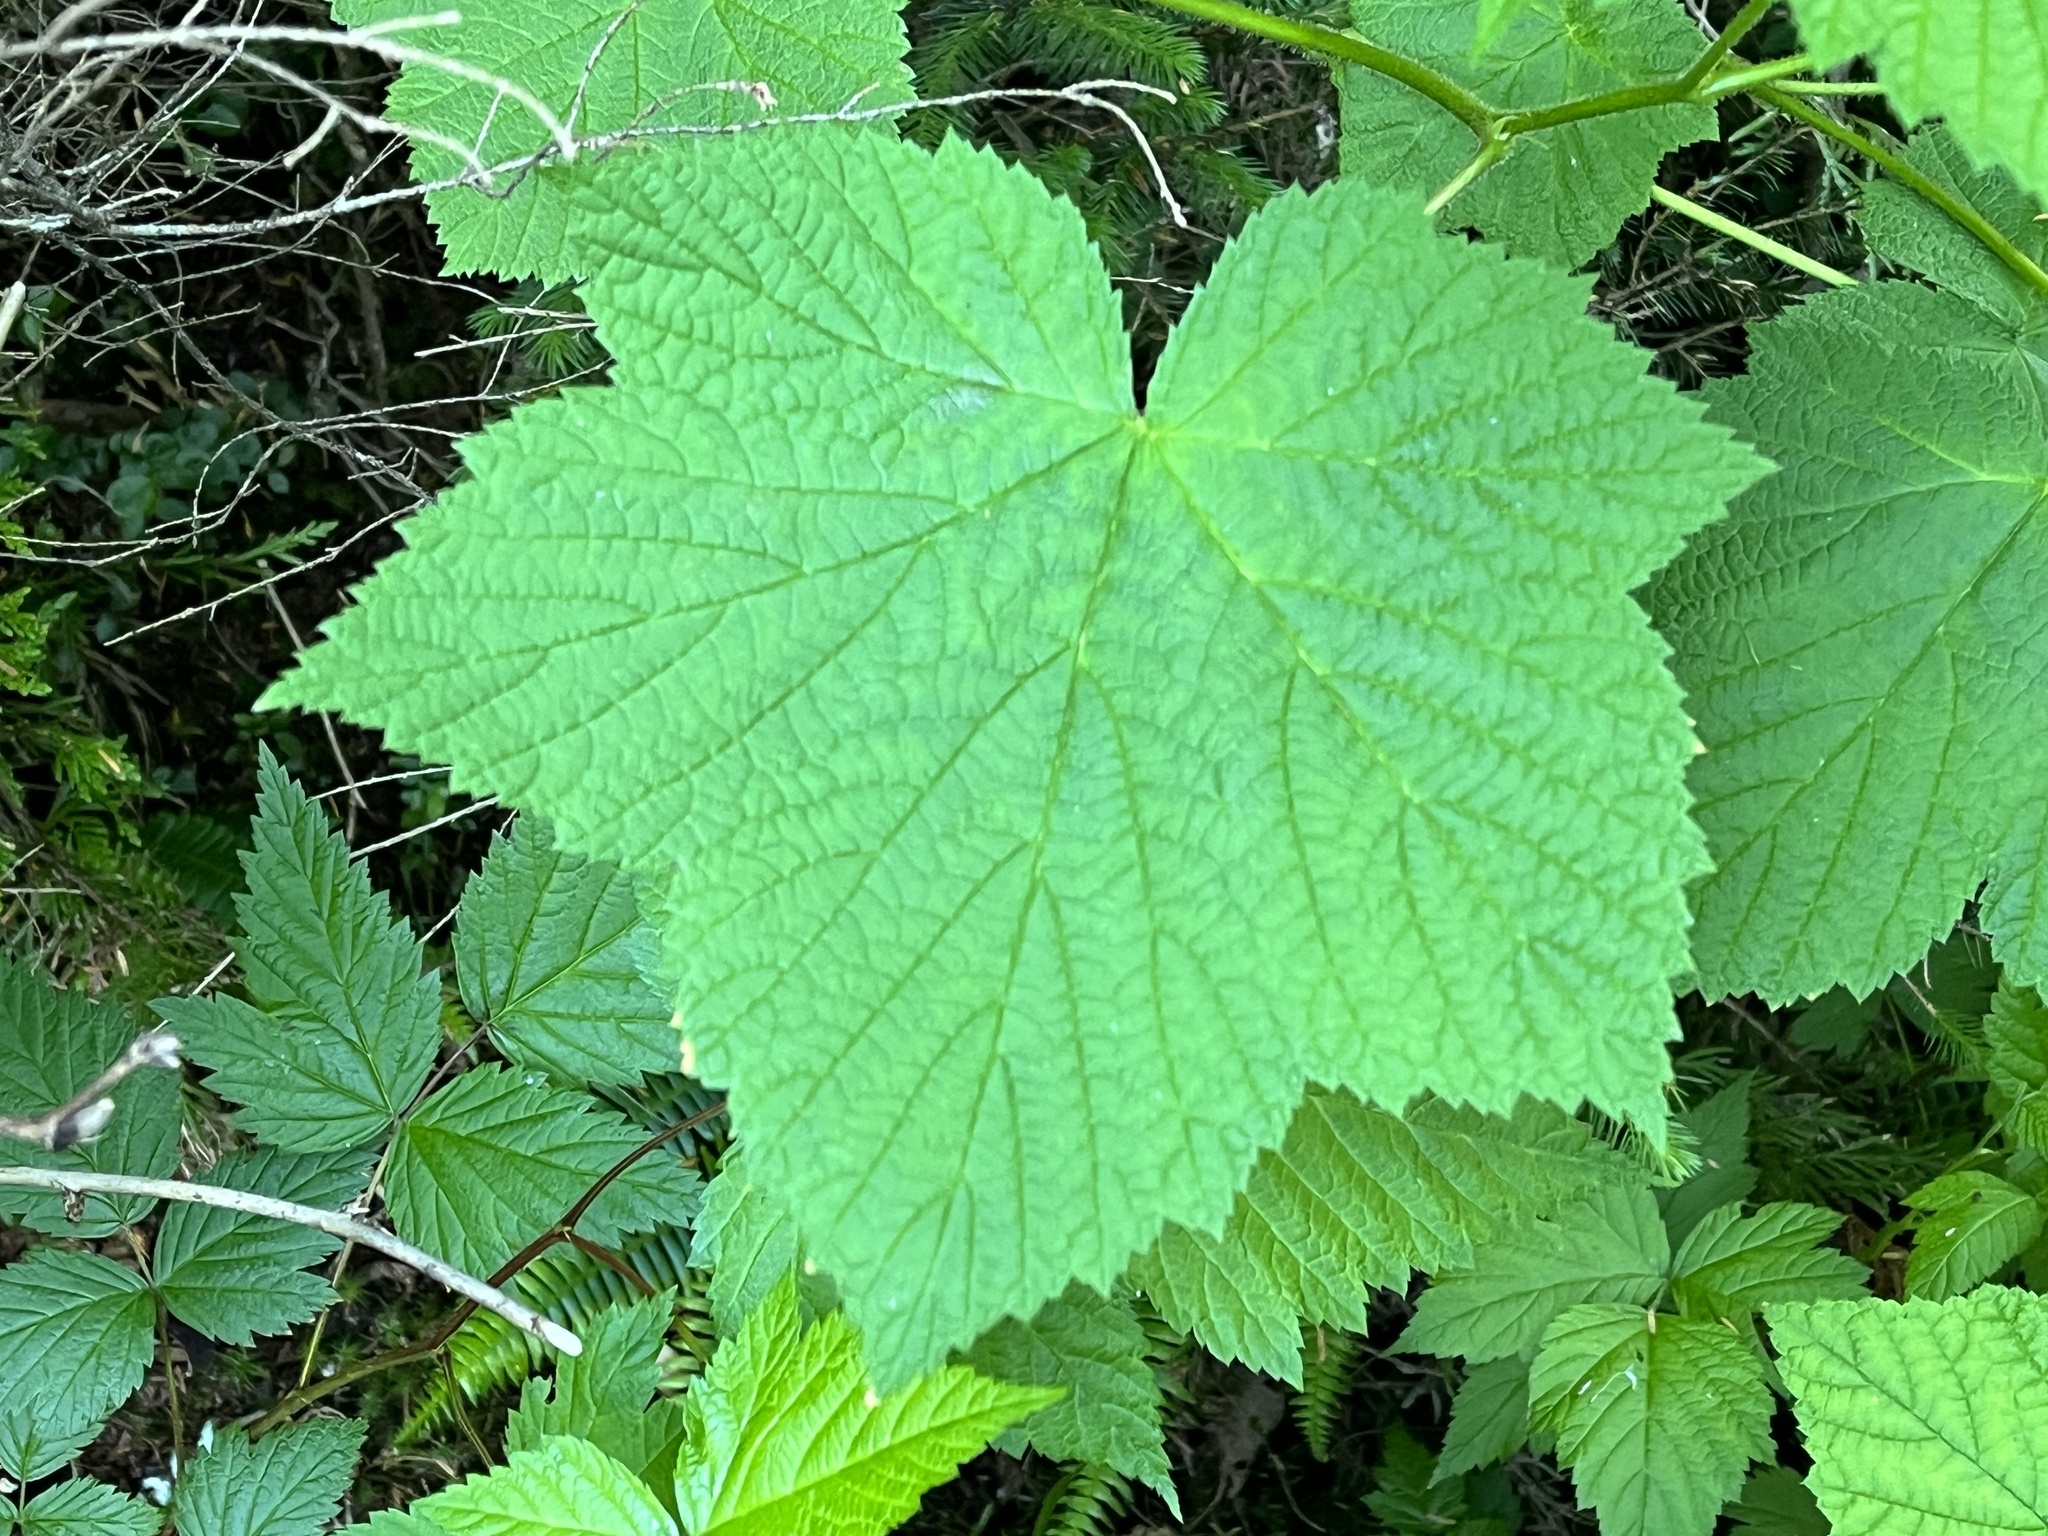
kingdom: Plantae
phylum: Tracheophyta
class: Magnoliopsida
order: Rosales
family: Rosaceae
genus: Rubus
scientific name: Rubus parviflorus
